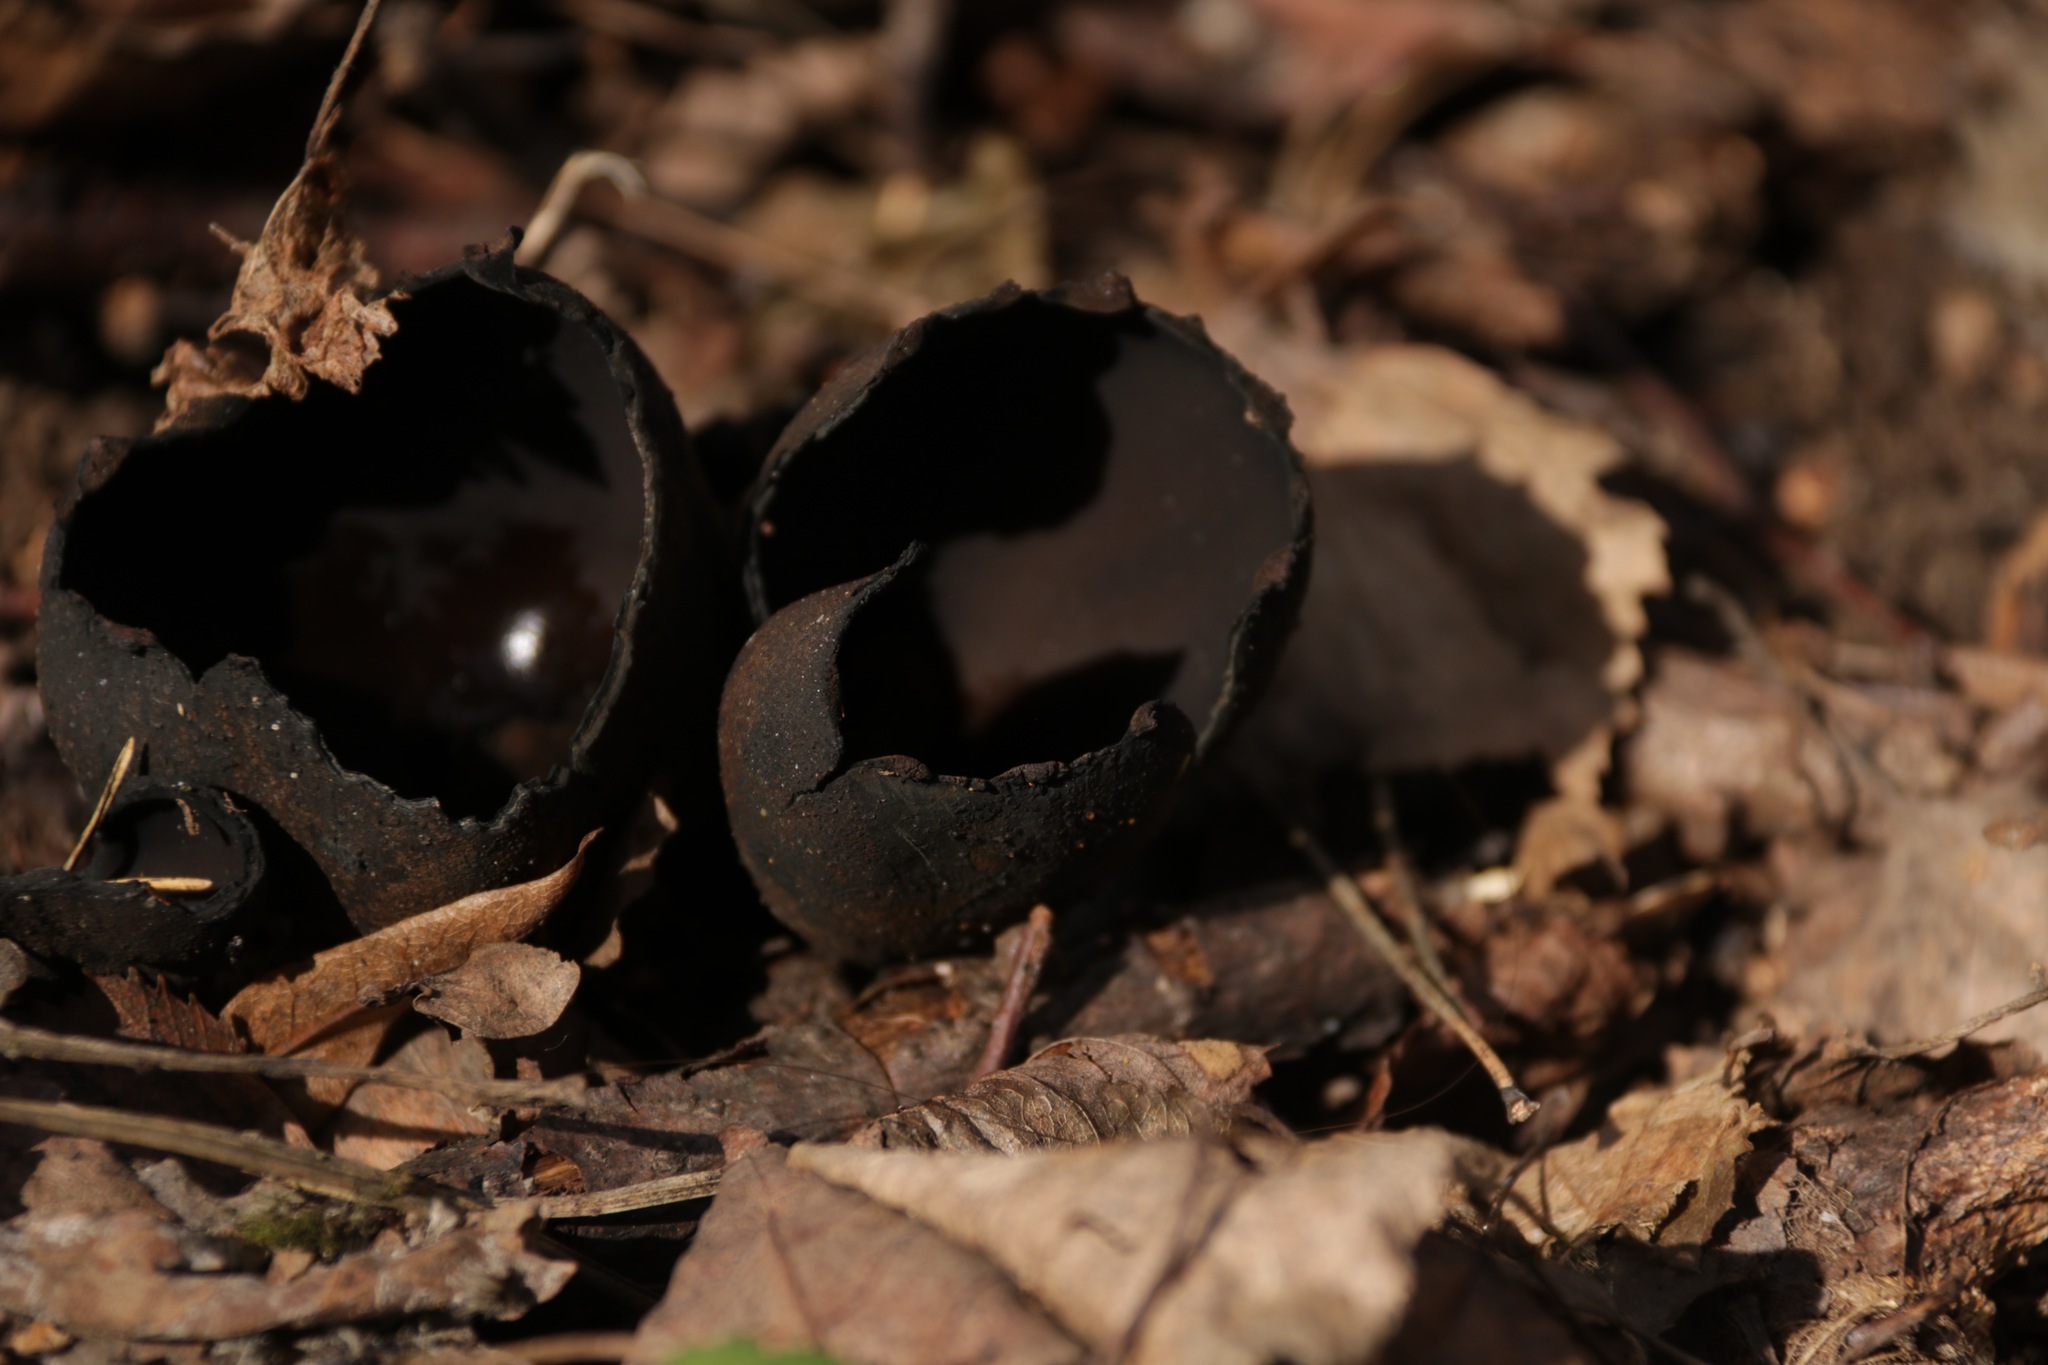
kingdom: Fungi
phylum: Ascomycota
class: Pezizomycetes
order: Pezizales
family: Sarcosomataceae
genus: Urnula
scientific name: Urnula craterium
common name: Devil's urn
